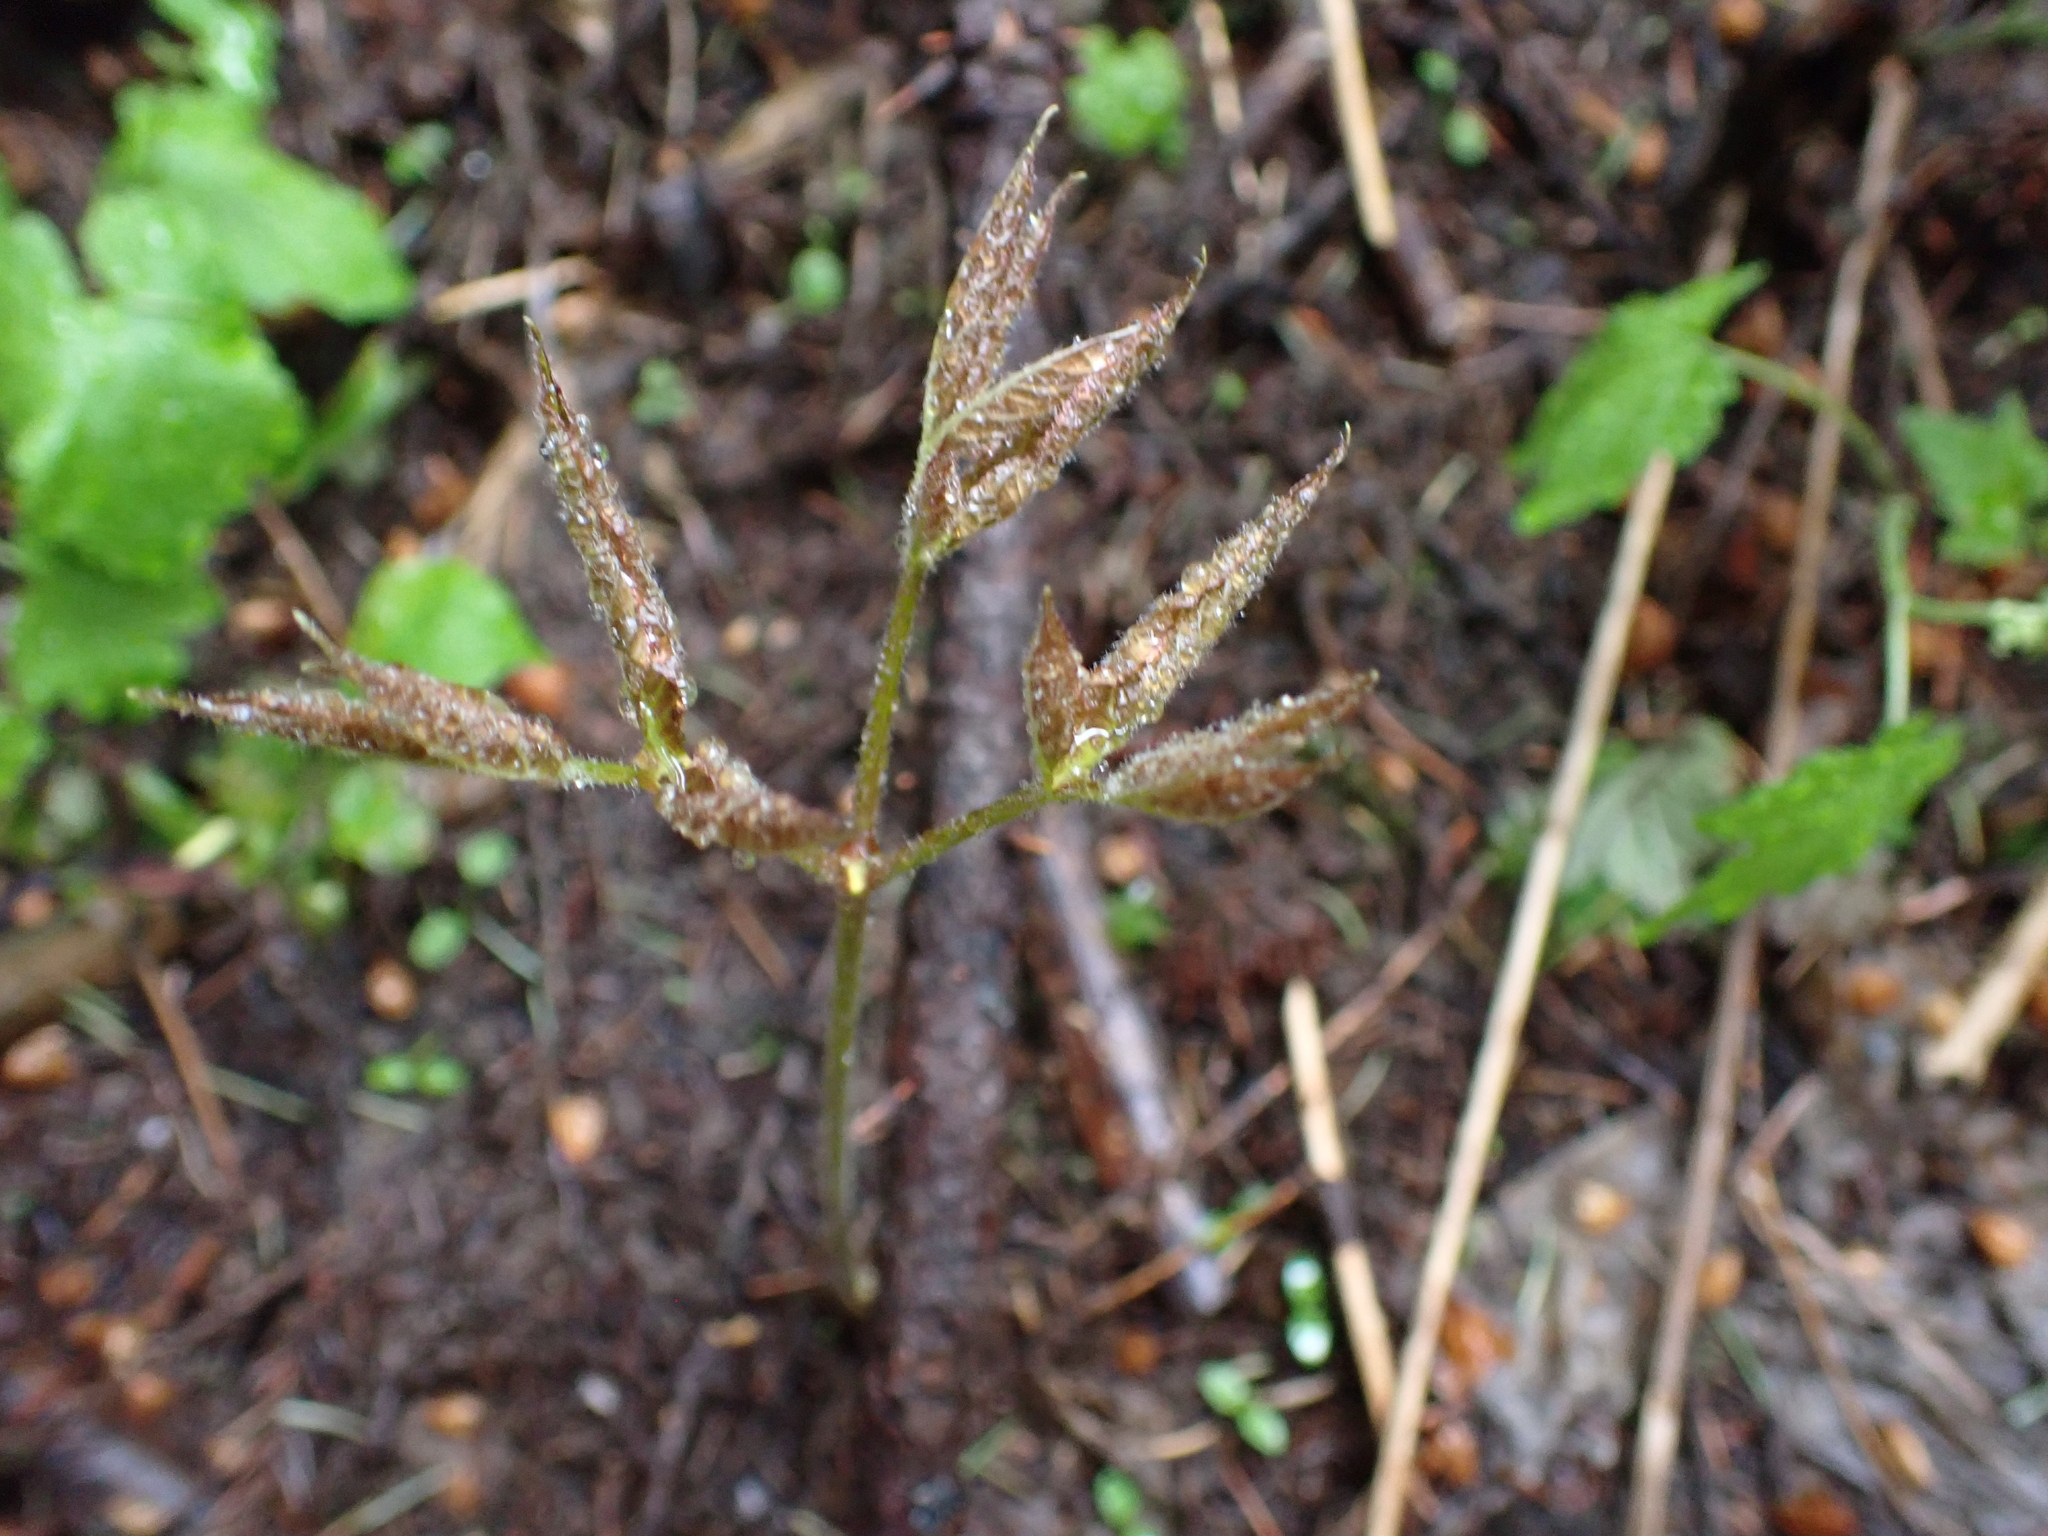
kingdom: Plantae
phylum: Tracheophyta
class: Magnoliopsida
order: Apiales
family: Araliaceae
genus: Aralia
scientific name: Aralia nudicaulis
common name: Wild sarsaparilla
